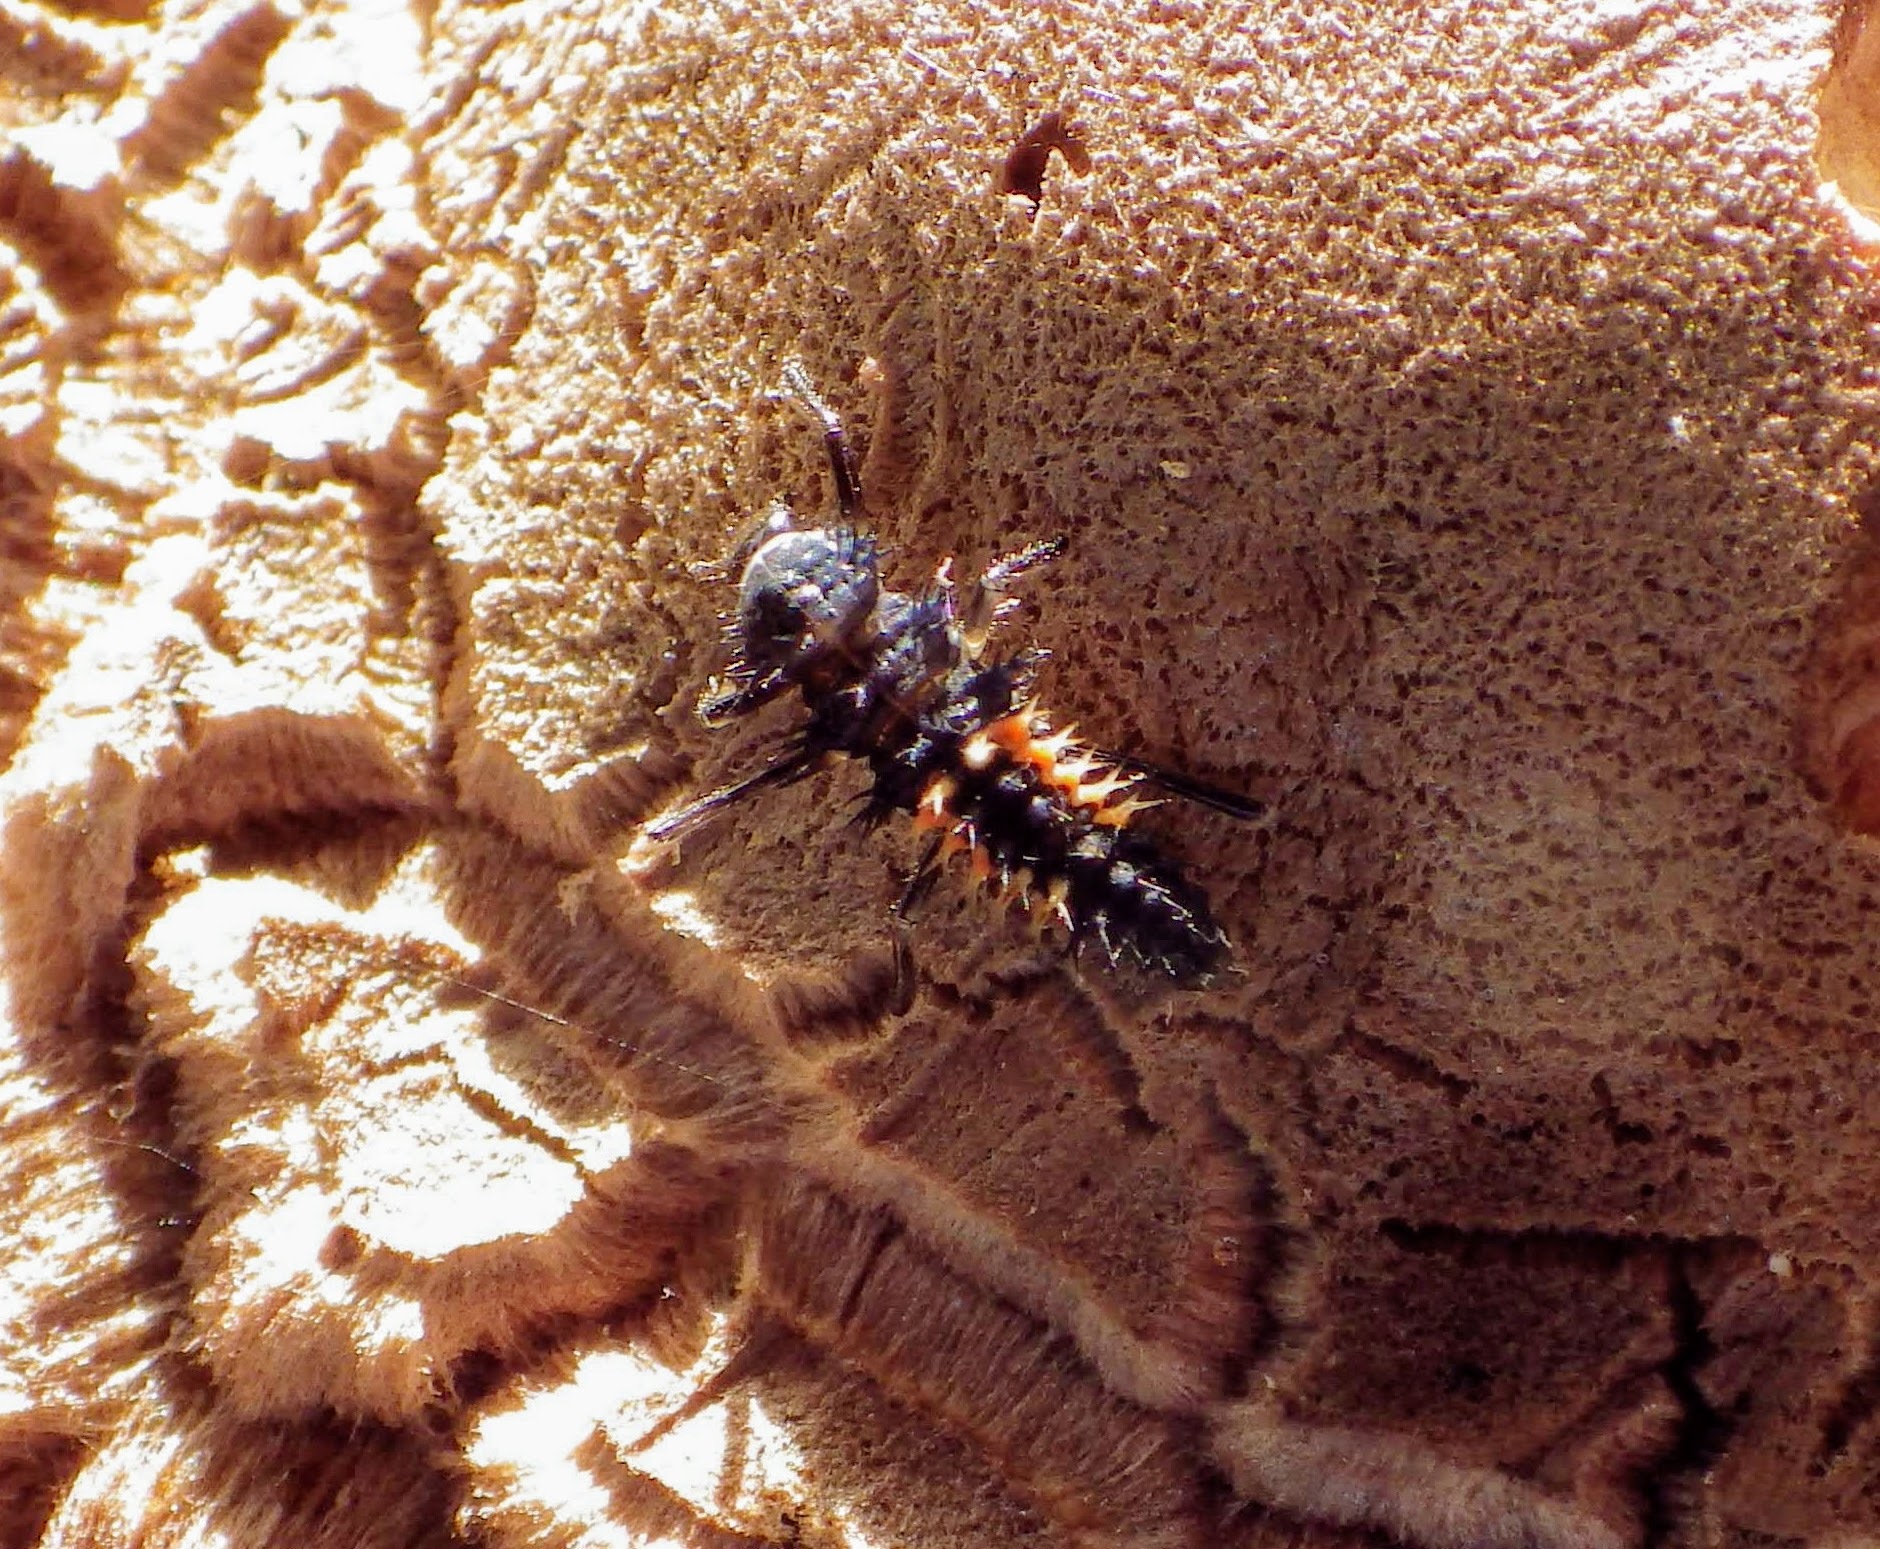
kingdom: Animalia
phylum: Arthropoda
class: Insecta
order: Coleoptera
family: Coccinellidae
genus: Harmonia
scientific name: Harmonia axyridis
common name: Harlequin ladybird
